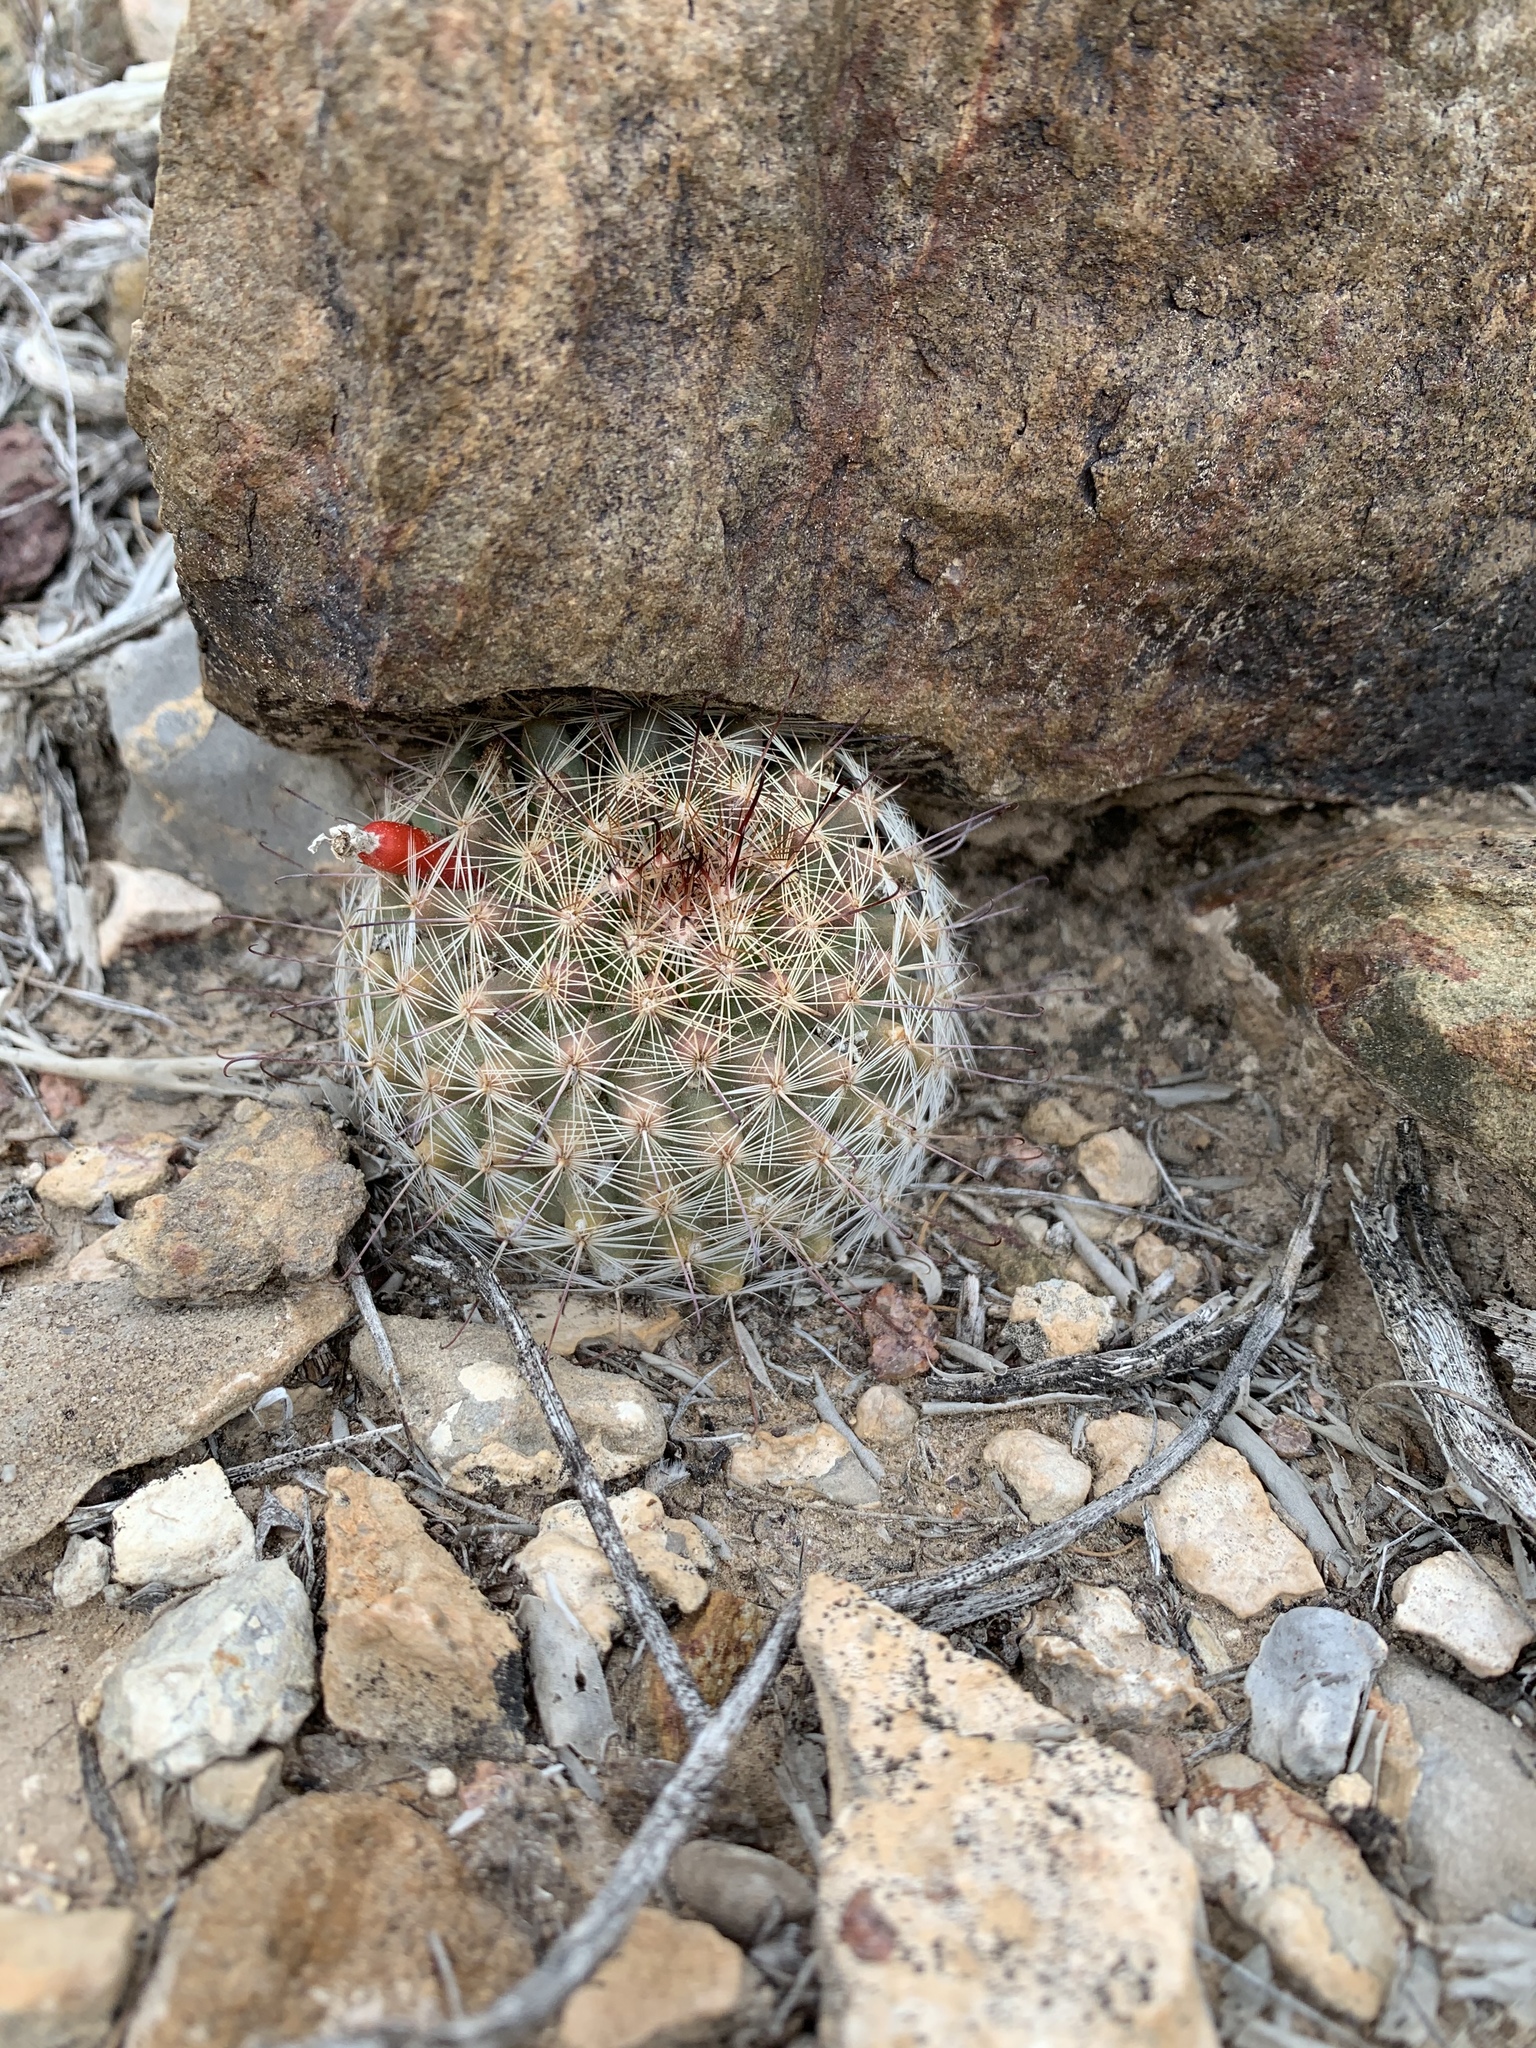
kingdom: Plantae
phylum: Tracheophyta
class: Magnoliopsida
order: Caryophyllales
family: Cactaceae
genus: Cochemiea
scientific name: Cochemiea grahamii
